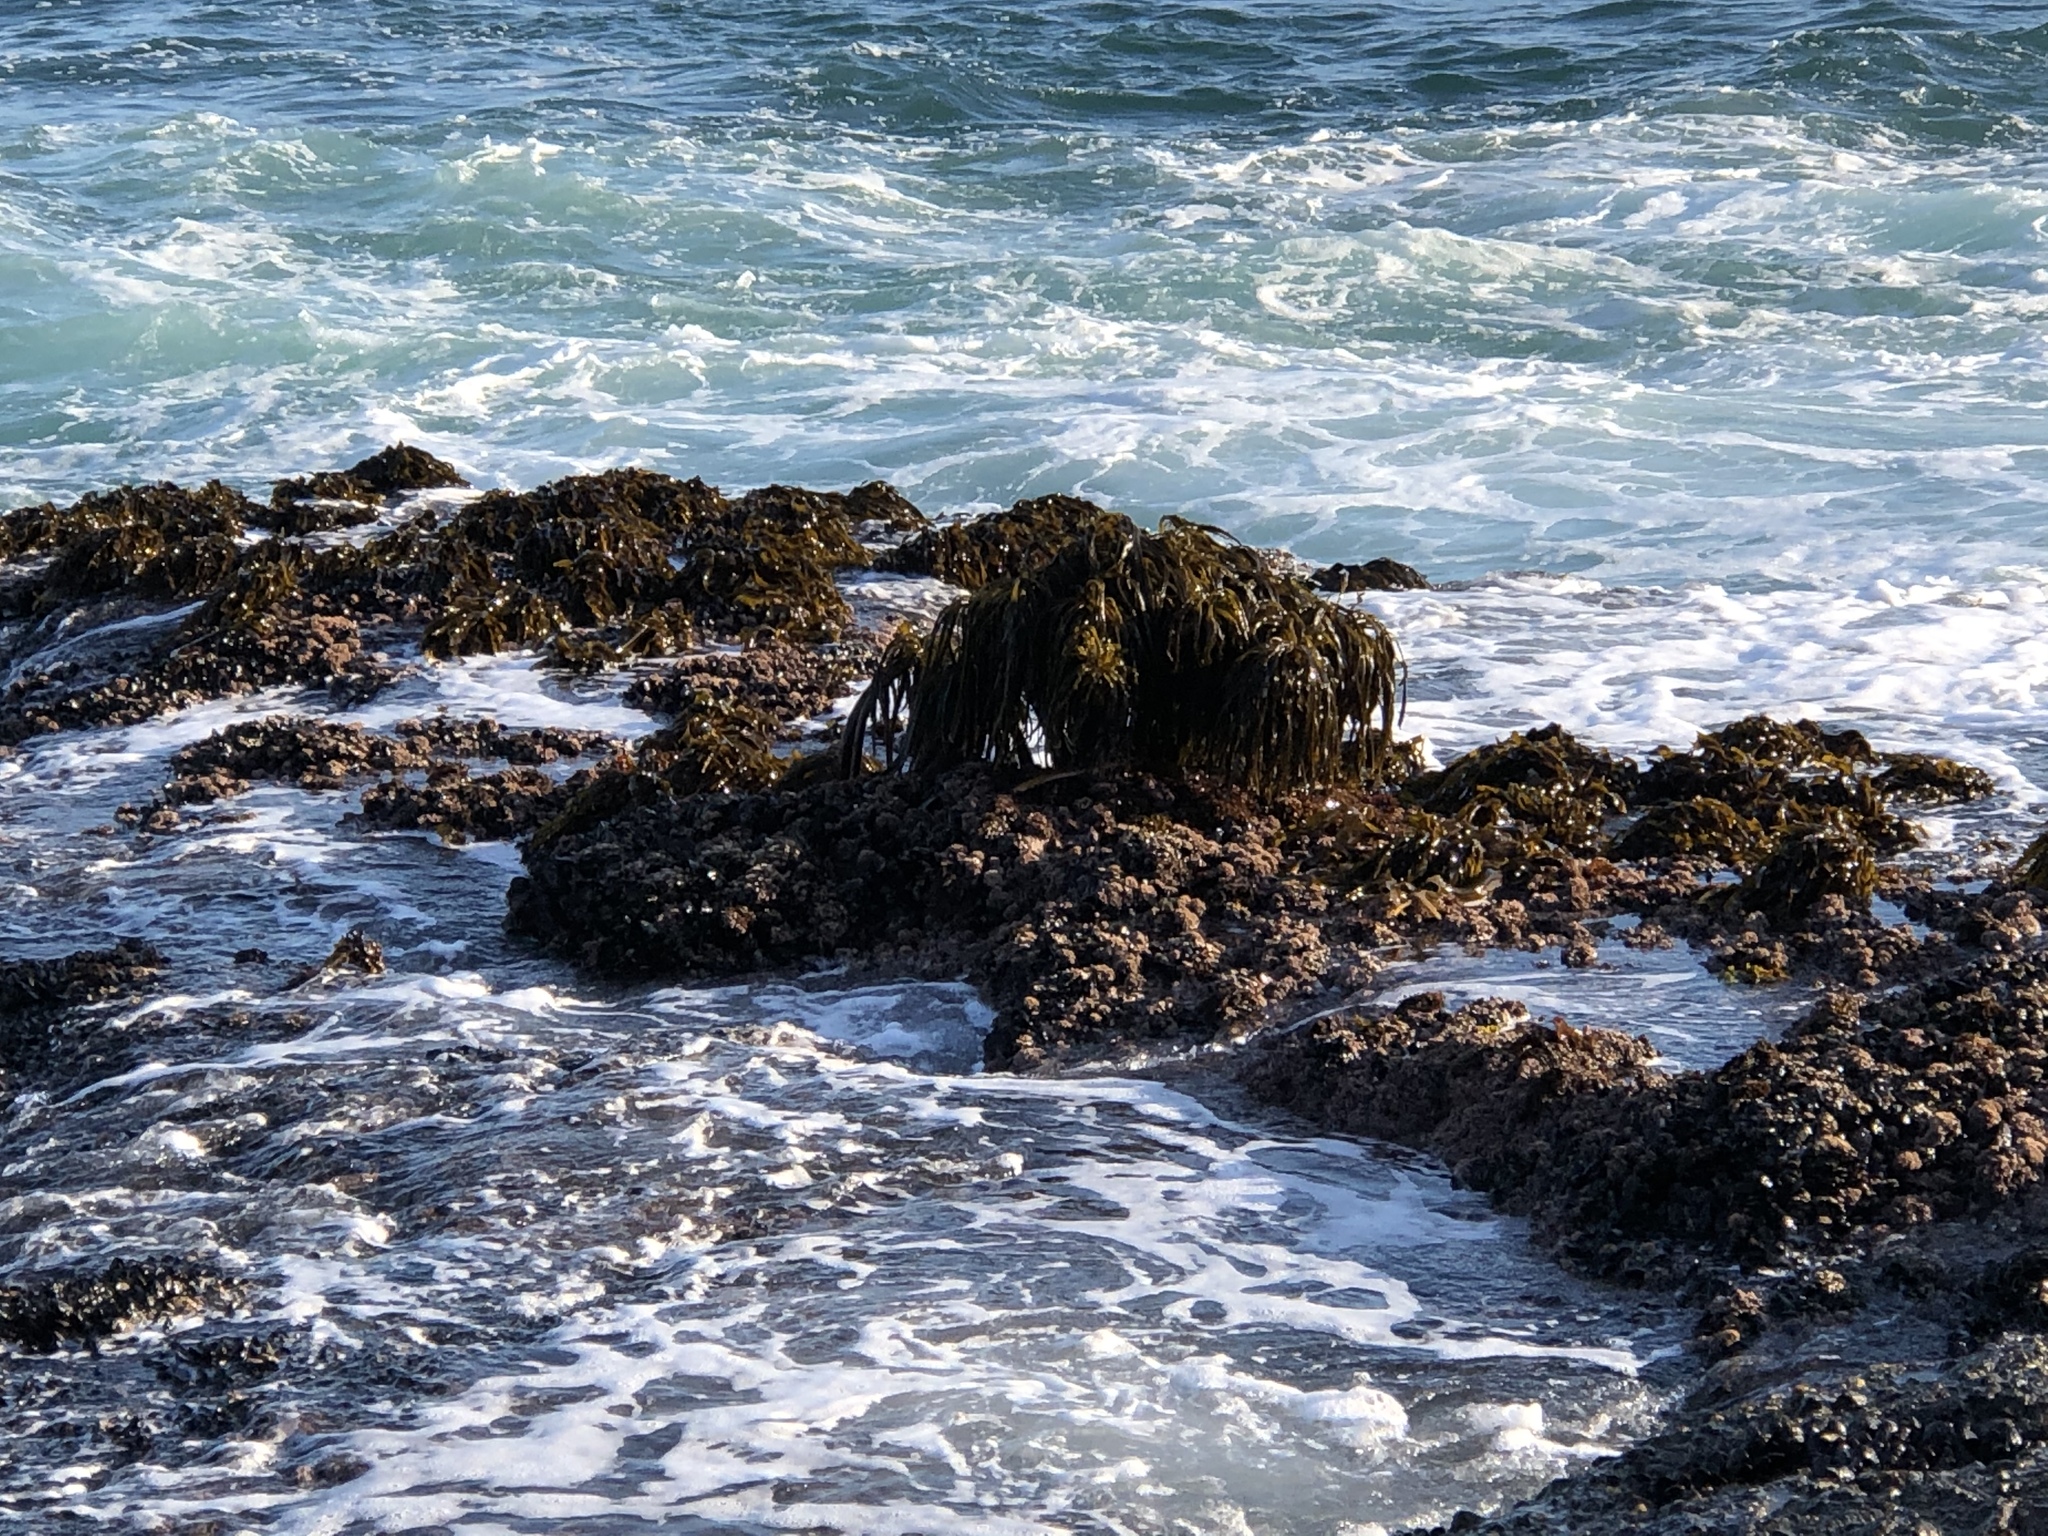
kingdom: Chromista
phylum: Ochrophyta
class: Phaeophyceae
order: Laminariales
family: Laminariaceae
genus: Postelsia
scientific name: Postelsia palmiformis
